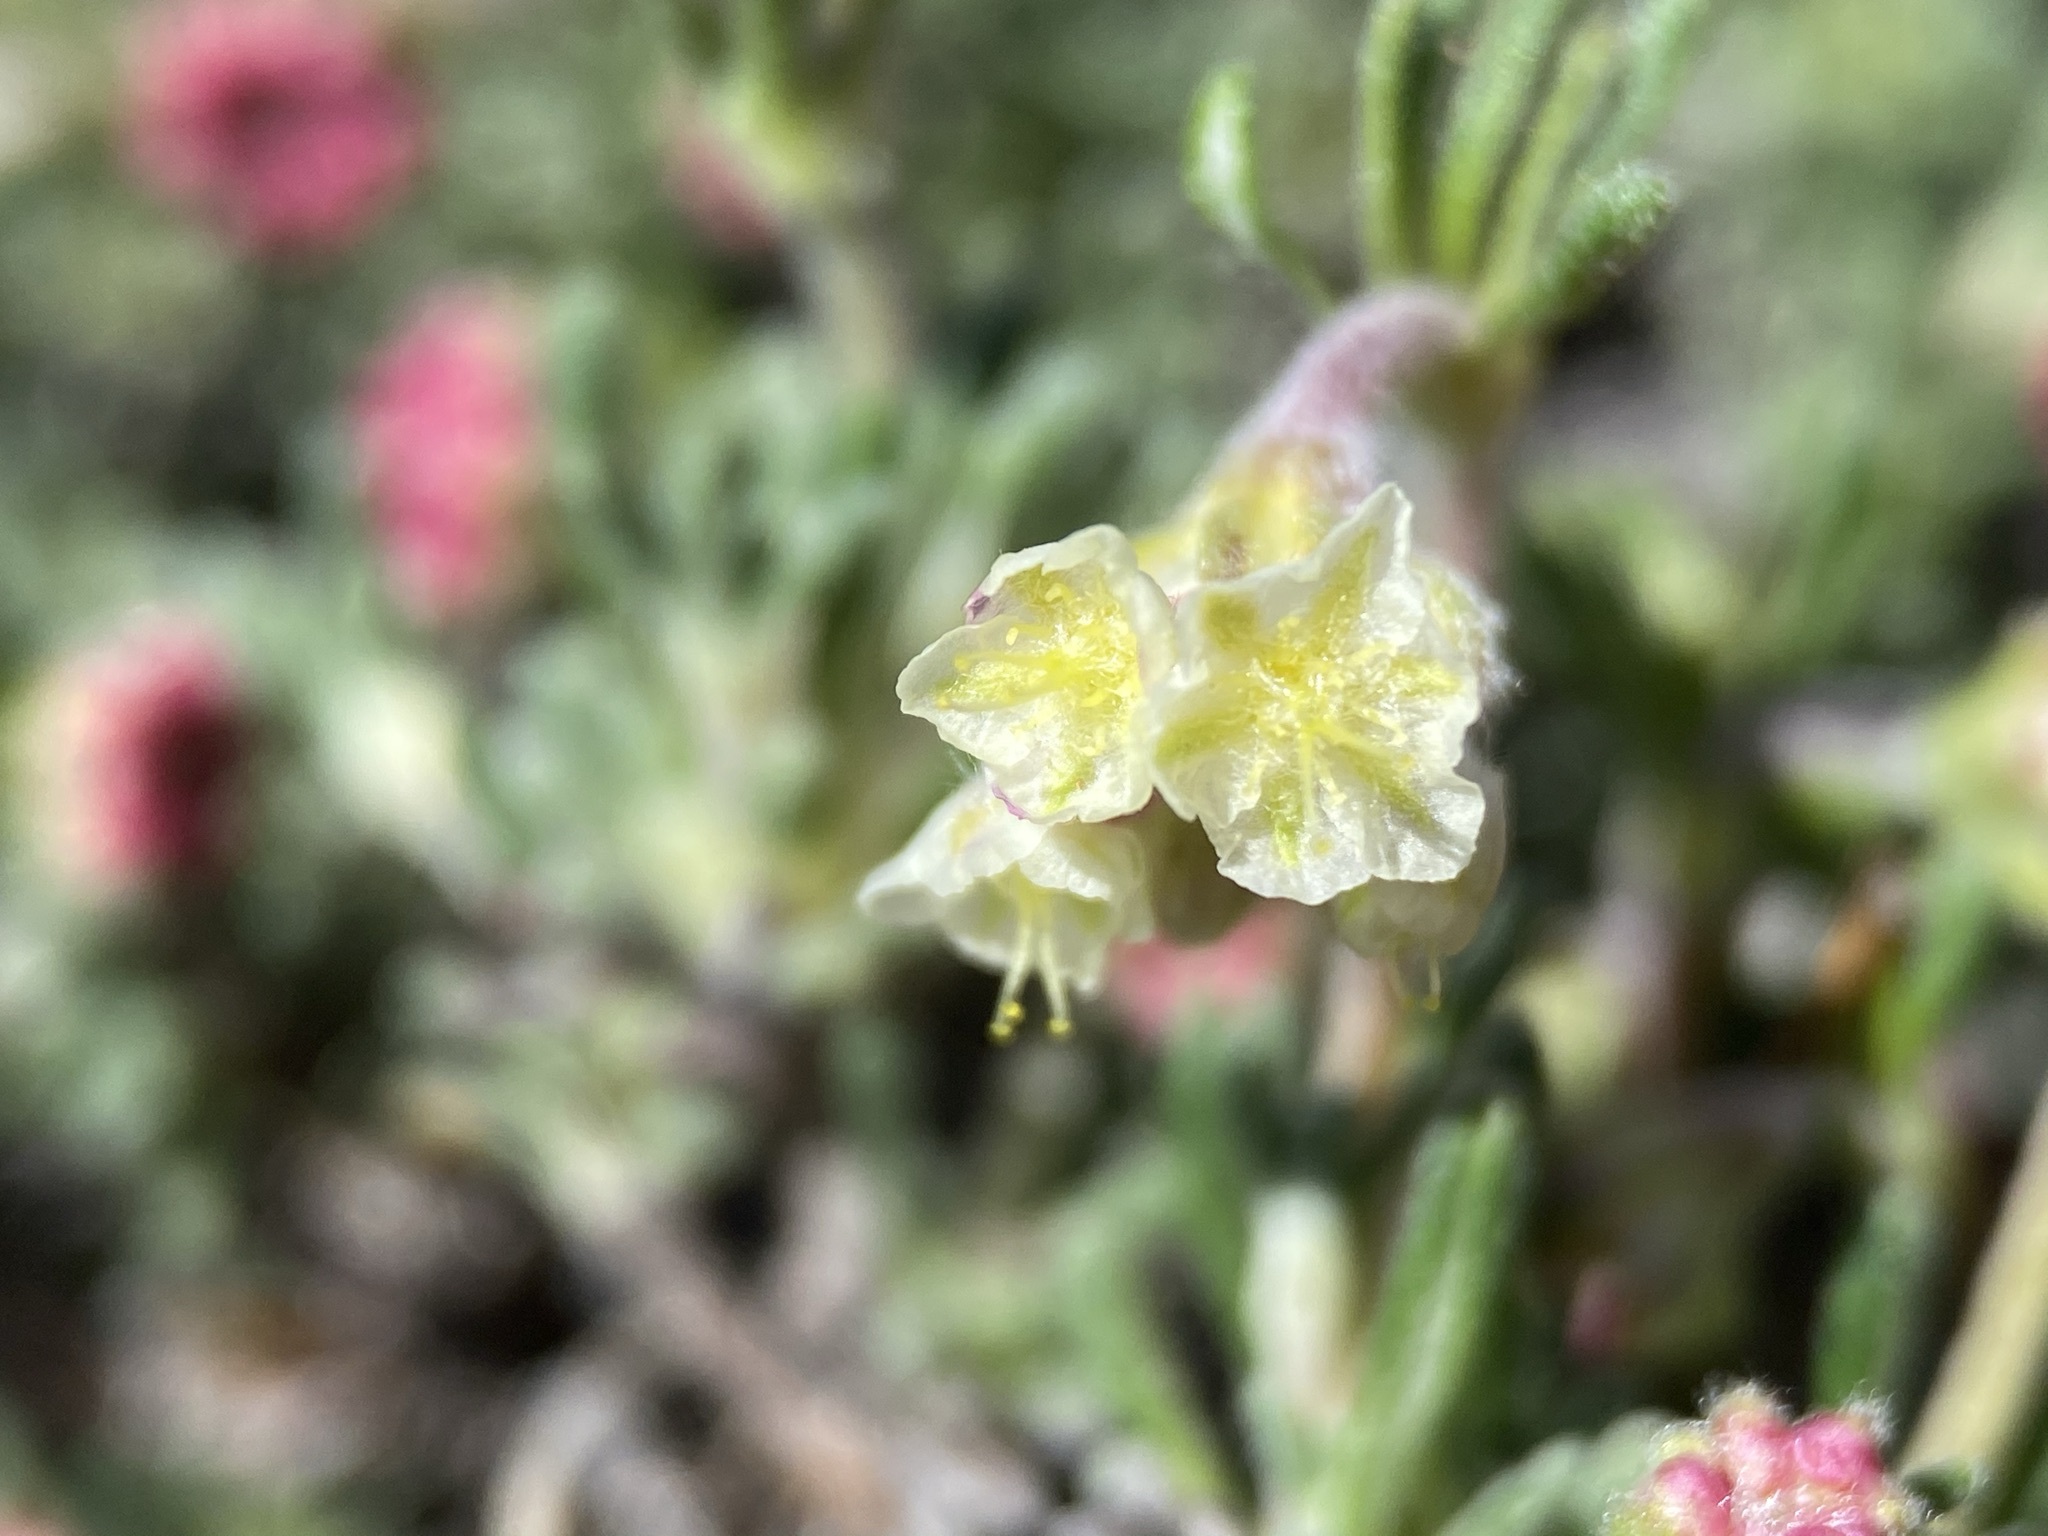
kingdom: Plantae
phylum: Tracheophyta
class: Magnoliopsida
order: Caryophyllales
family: Polygonaceae
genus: Eriogonum
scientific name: Eriogonum thymoides
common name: Thyme-leaf wild buckwheat
